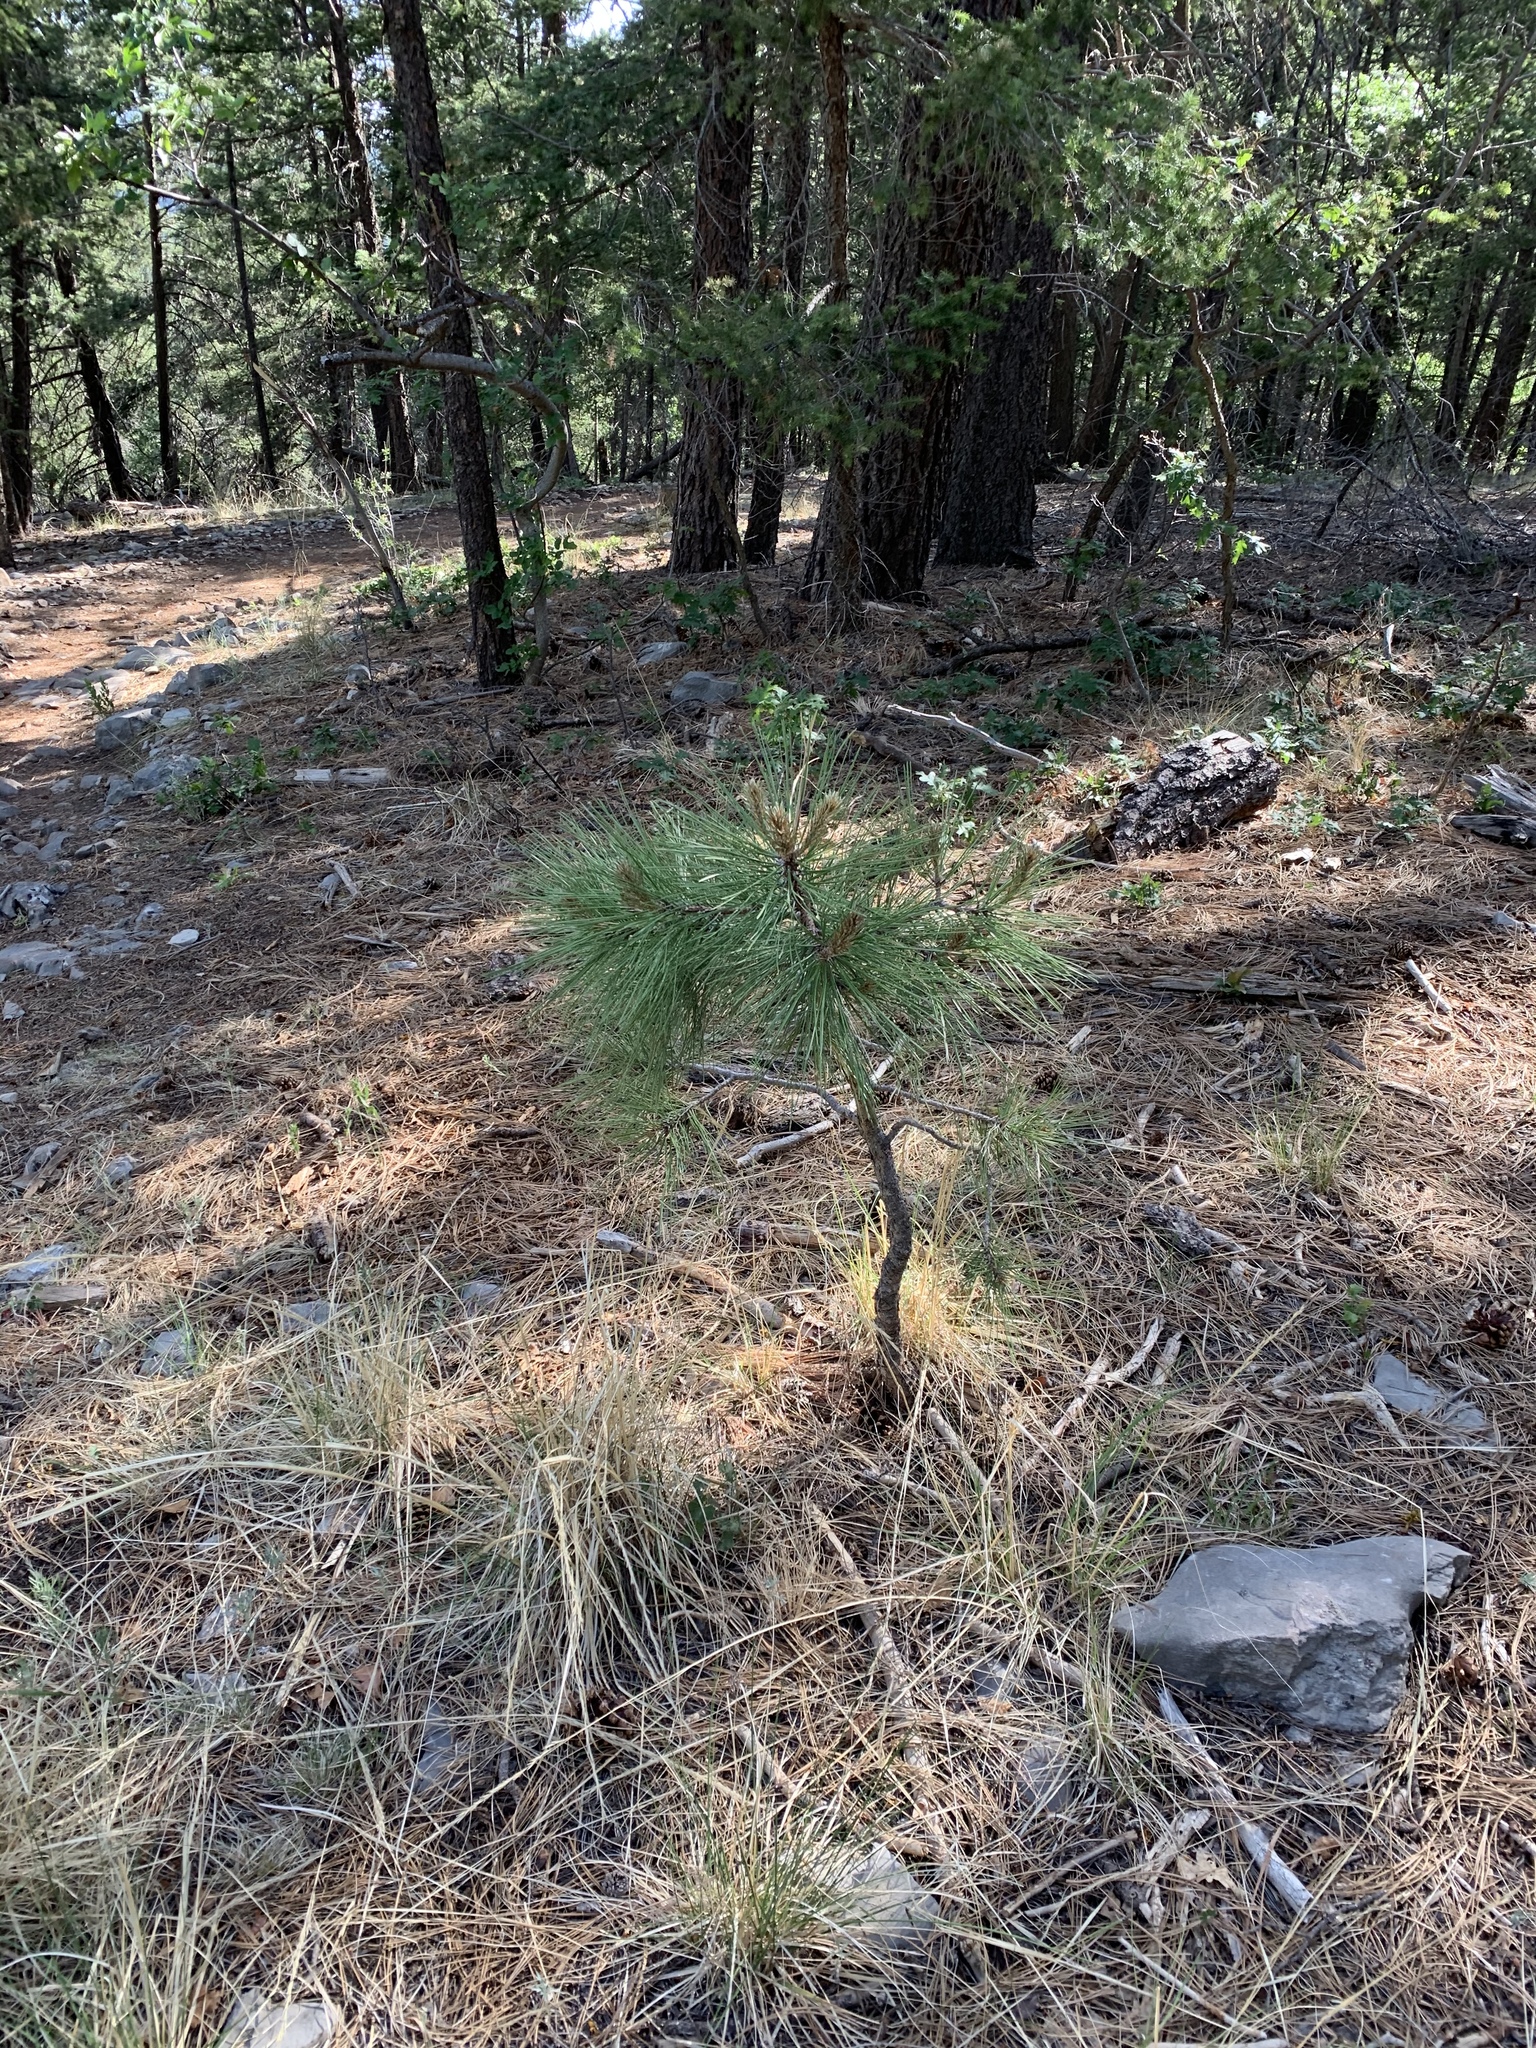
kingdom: Plantae
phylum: Tracheophyta
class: Pinopsida
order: Pinales
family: Pinaceae
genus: Pinus
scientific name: Pinus ponderosa
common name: Western yellow-pine
